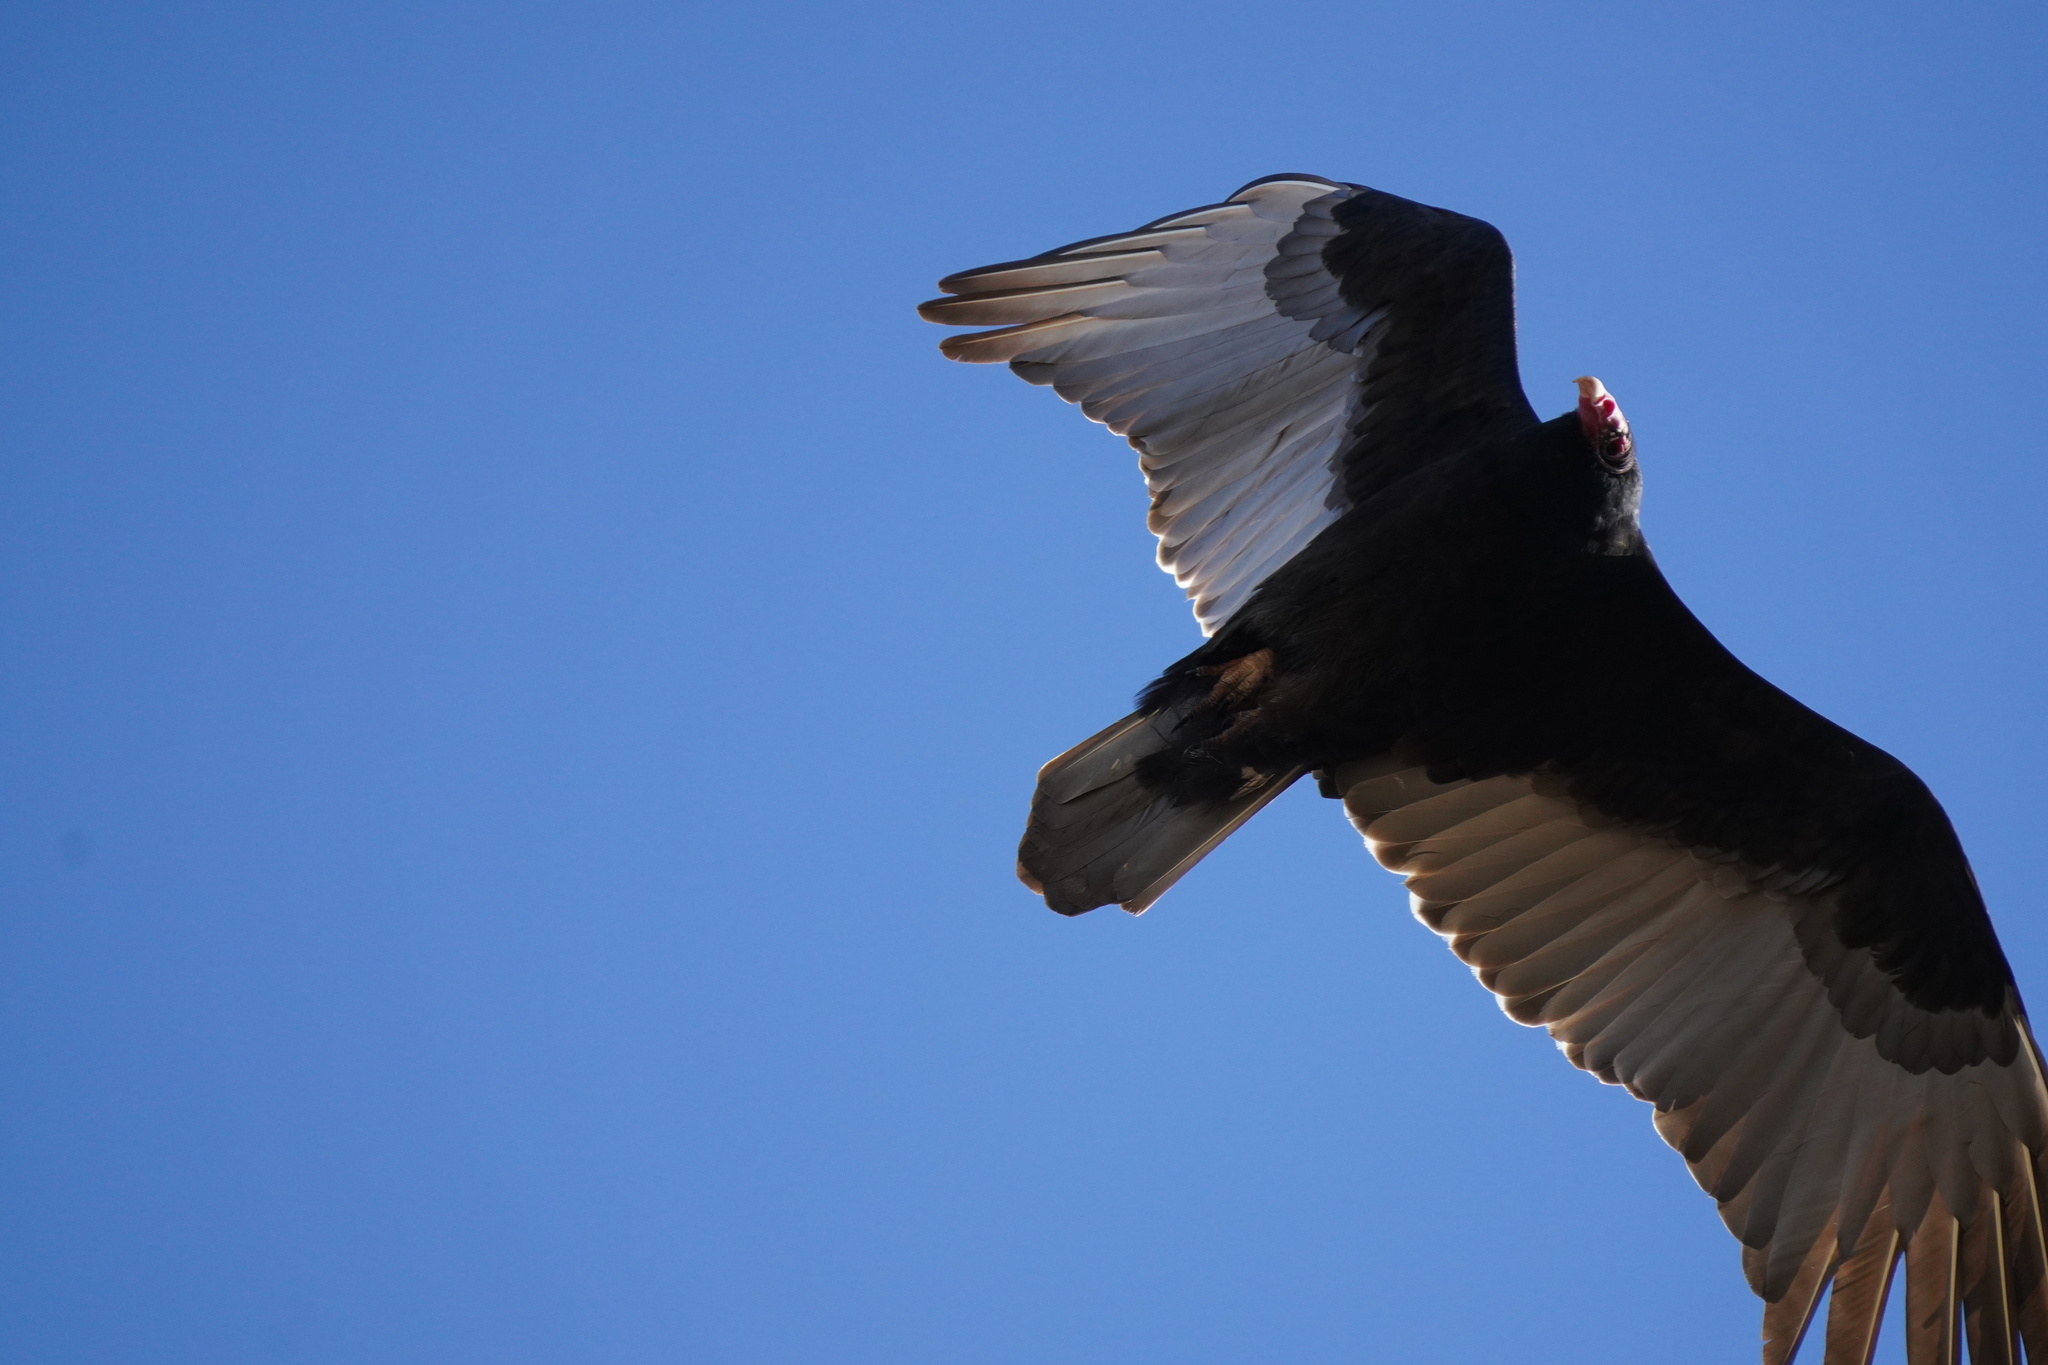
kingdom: Animalia
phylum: Chordata
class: Aves
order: Accipitriformes
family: Cathartidae
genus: Cathartes
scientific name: Cathartes aura
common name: Turkey vulture
